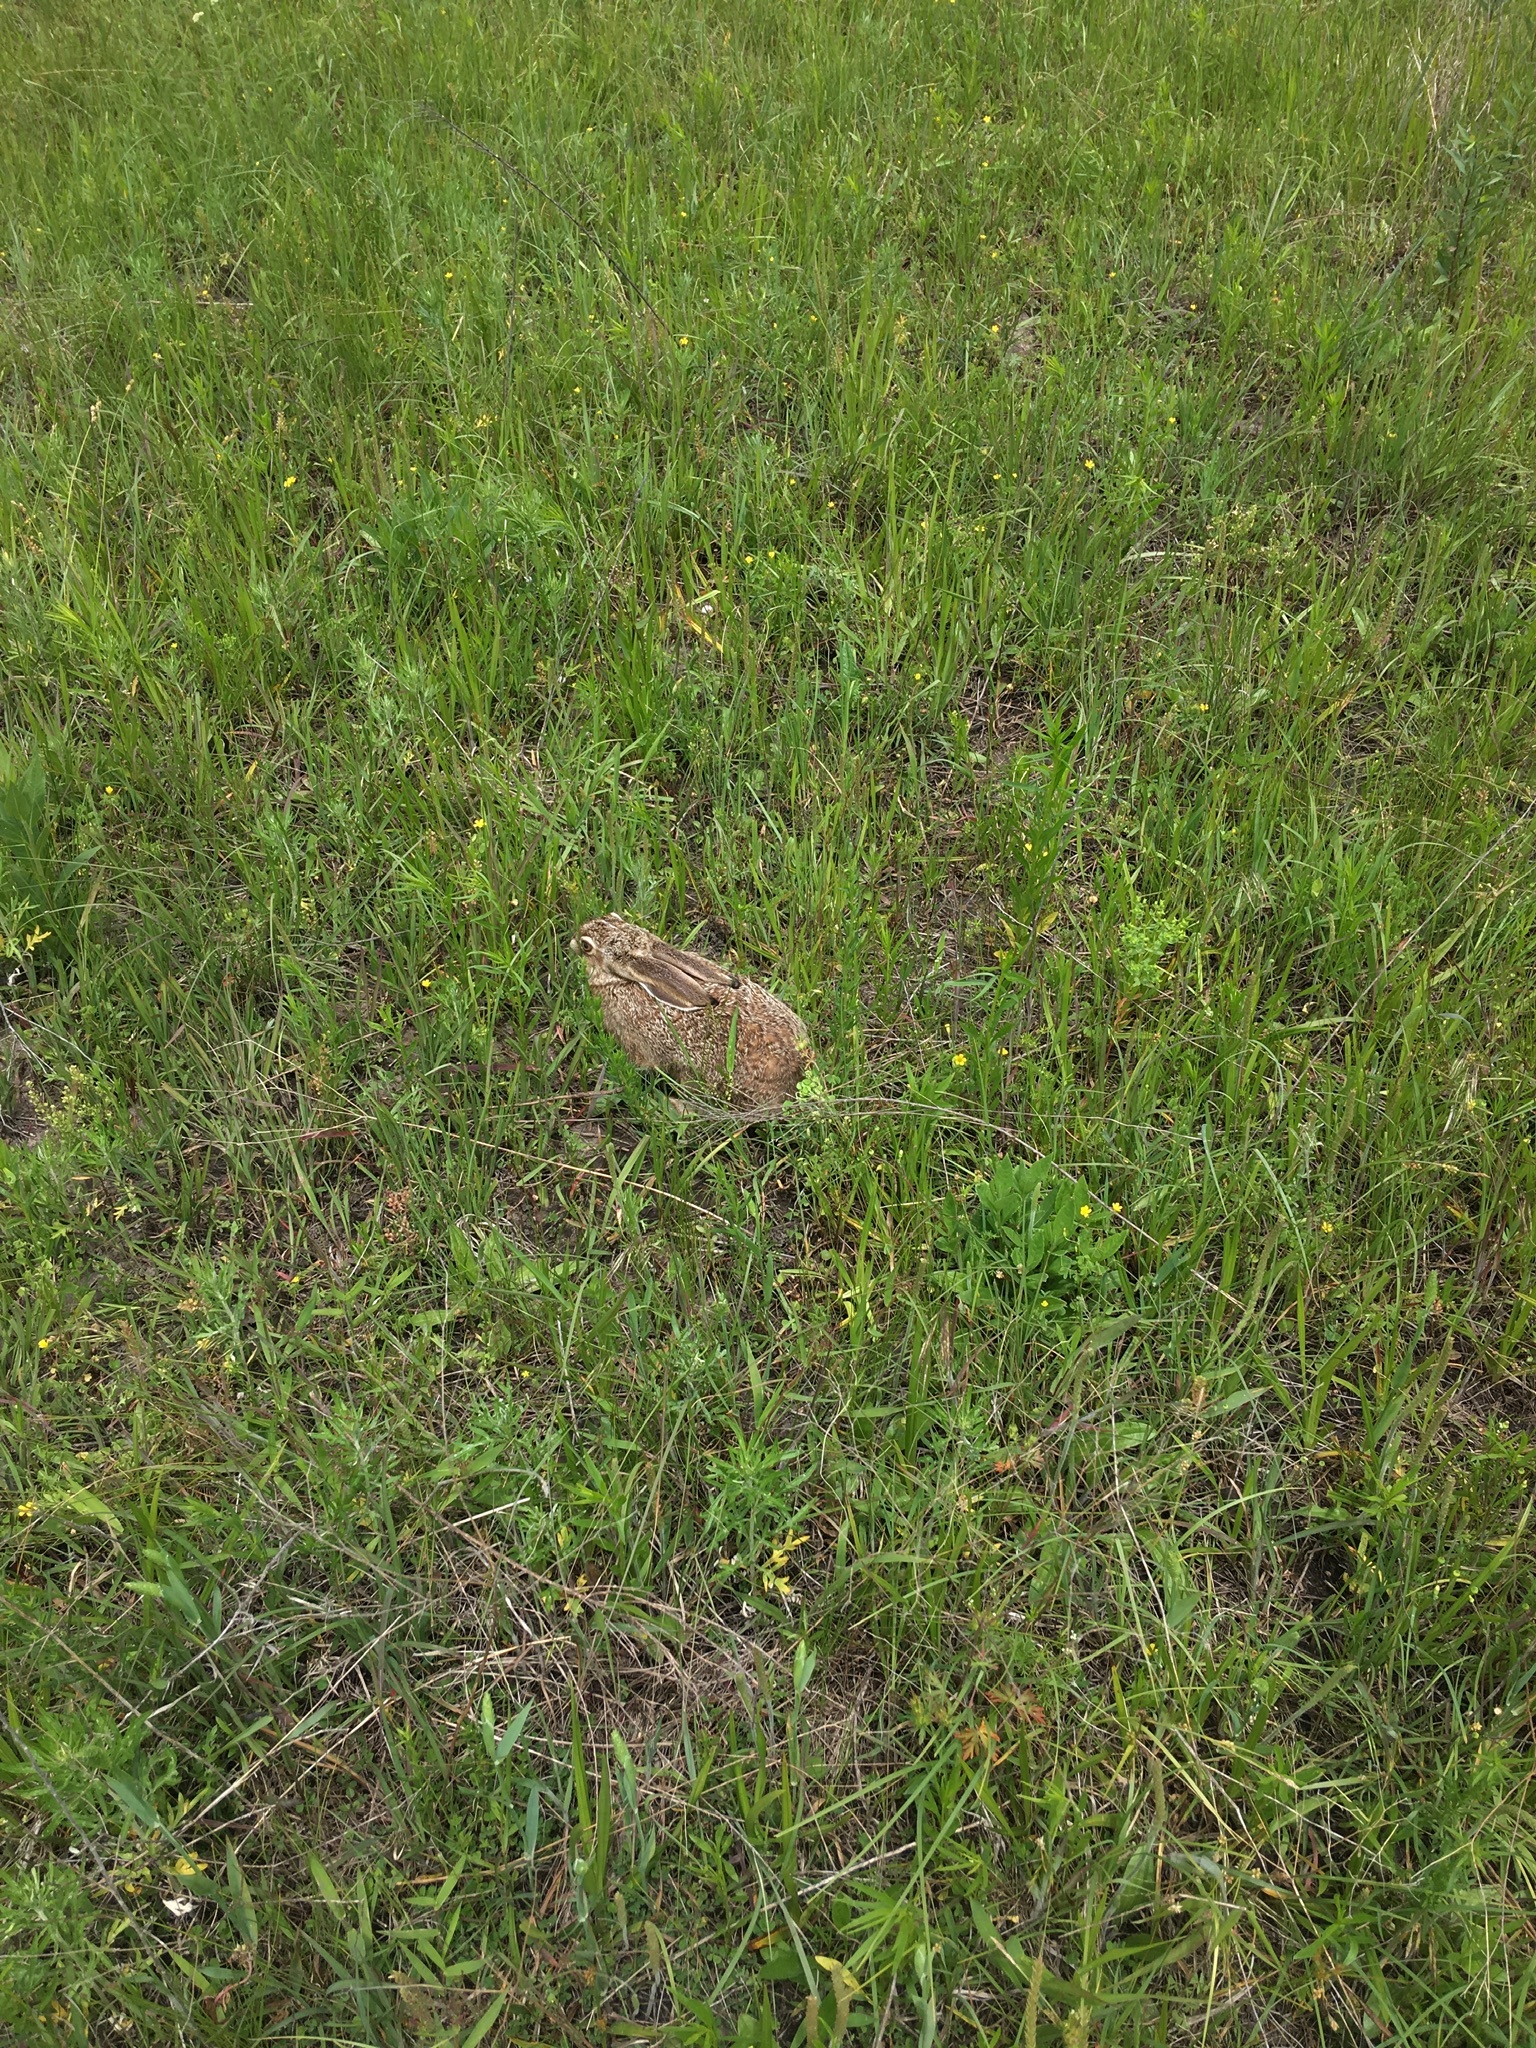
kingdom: Animalia
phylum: Chordata
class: Mammalia
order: Lagomorpha
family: Leporidae
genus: Lepus
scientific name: Lepus californicus
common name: Black-tailed jackrabbit
